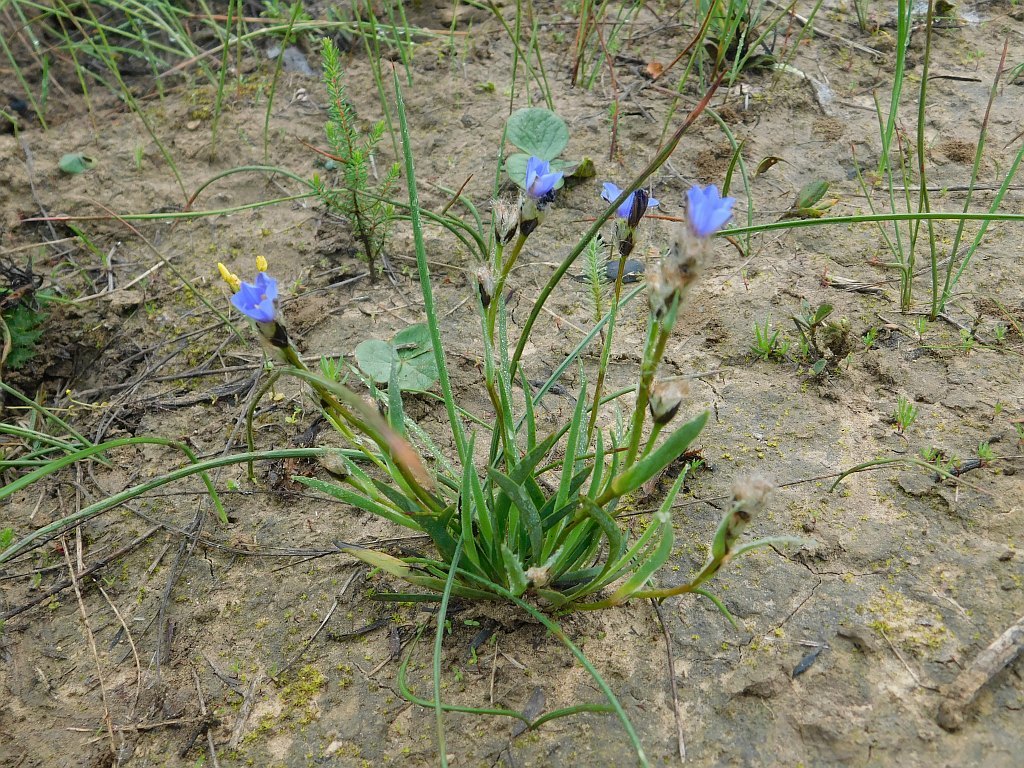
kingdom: Plantae
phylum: Tracheophyta
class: Liliopsida
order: Asparagales
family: Iridaceae
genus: Aristea
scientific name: Aristea africana
